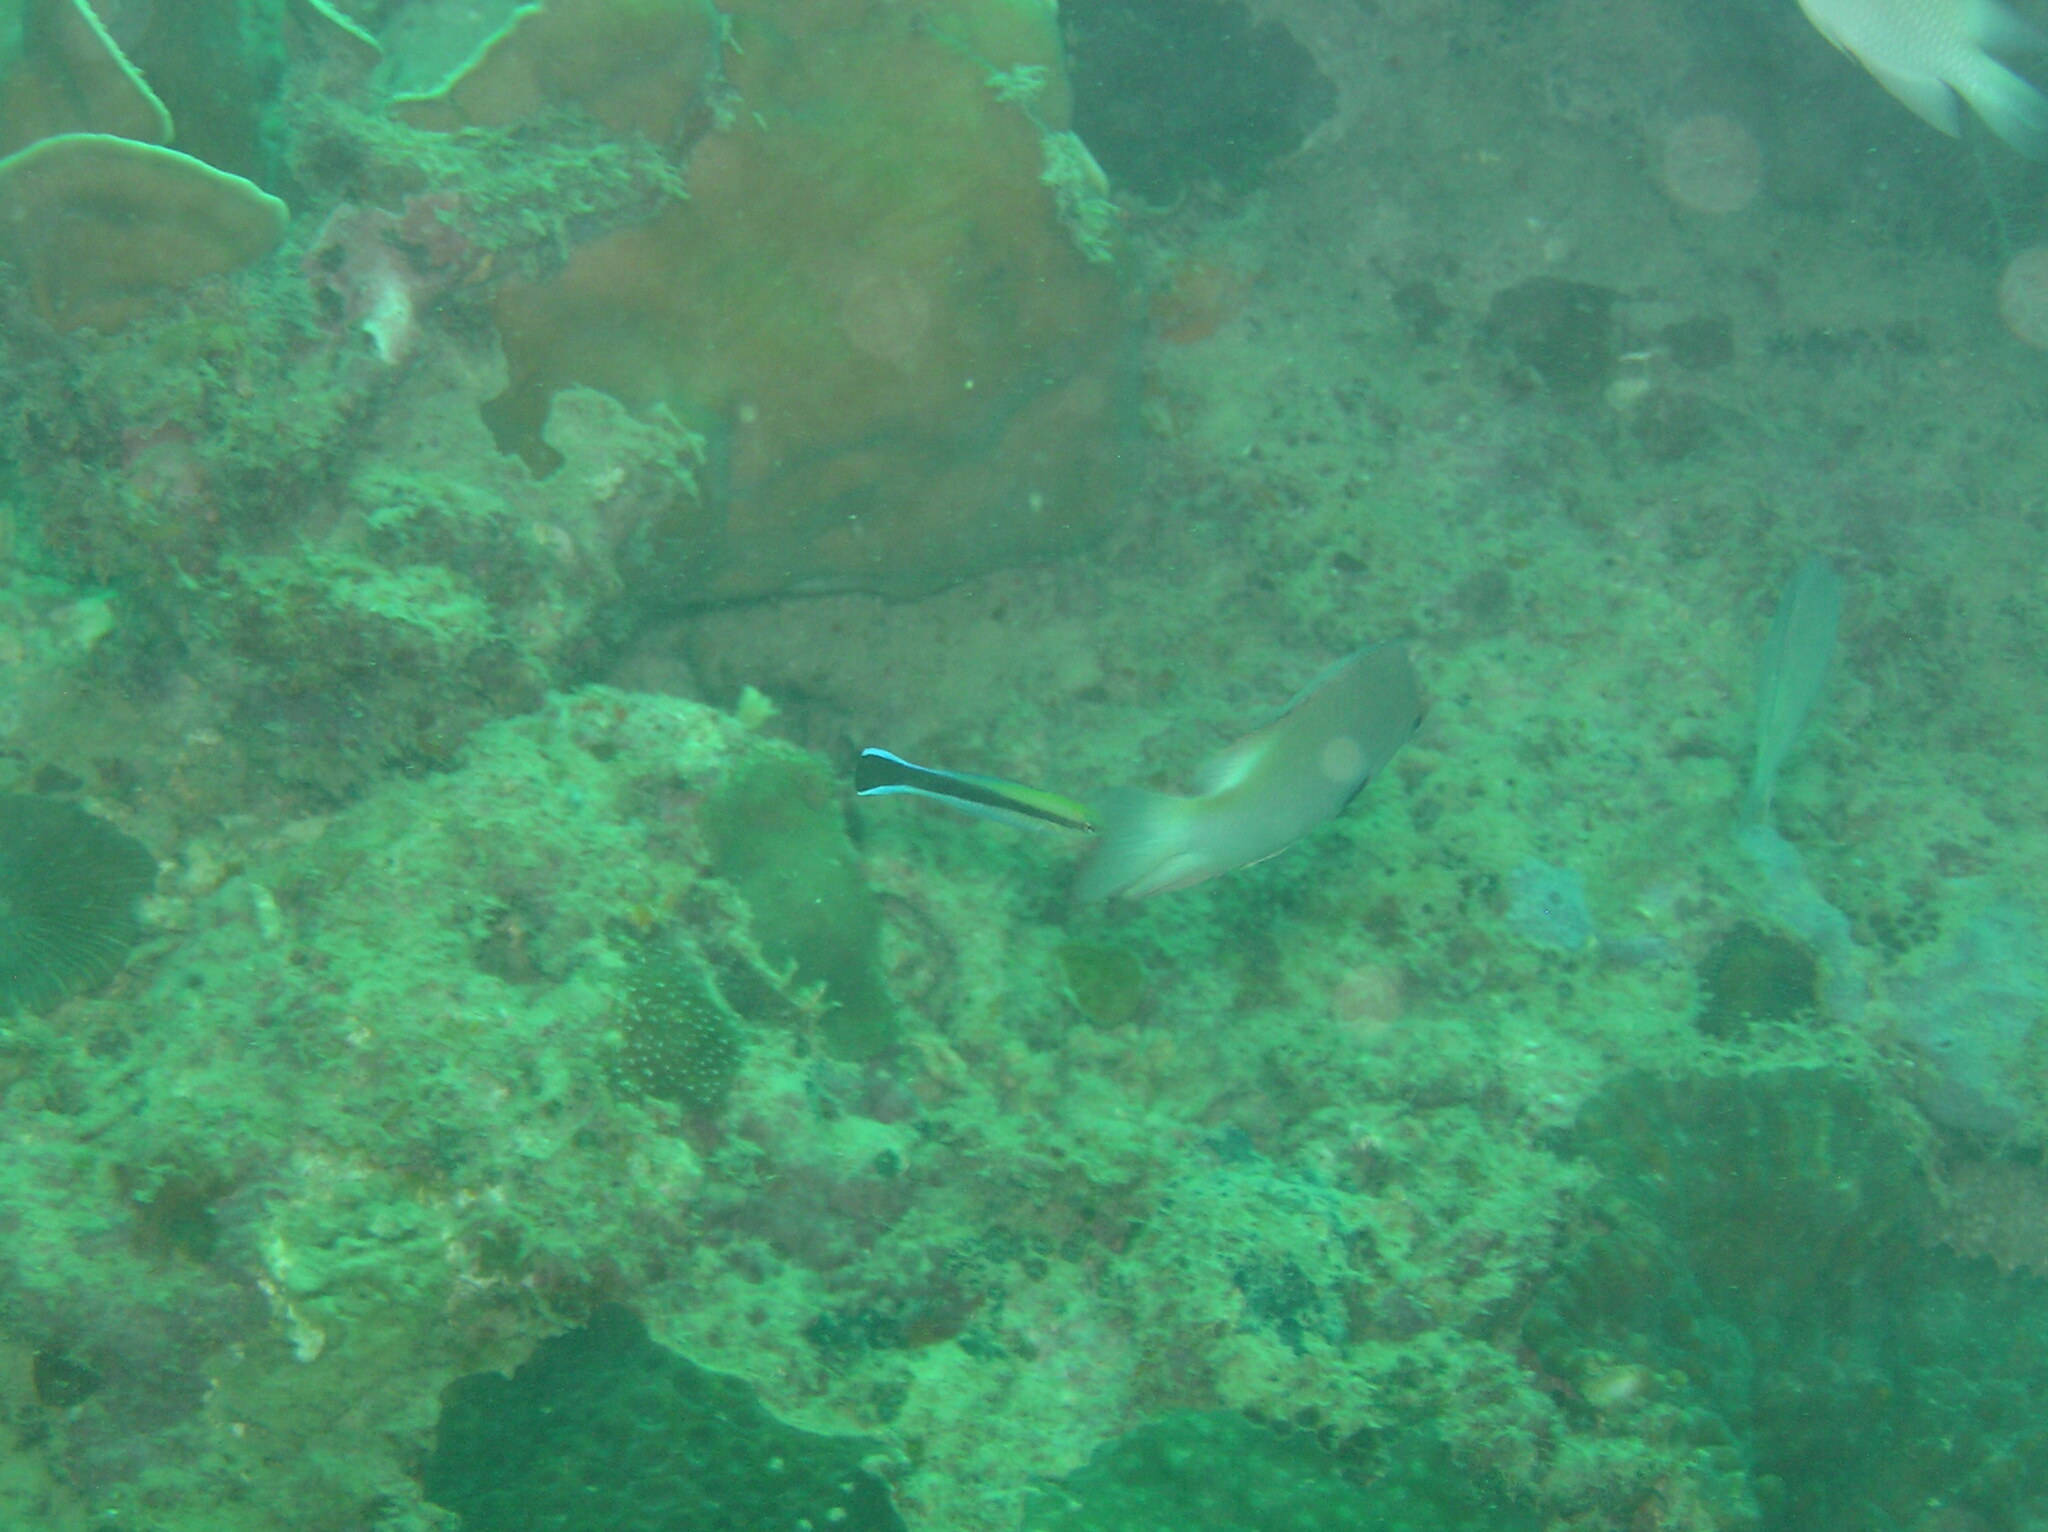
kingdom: Animalia
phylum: Chordata
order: Perciformes
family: Labridae
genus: Labroides
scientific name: Labroides dimidiatus
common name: Blue diesel wrasse
